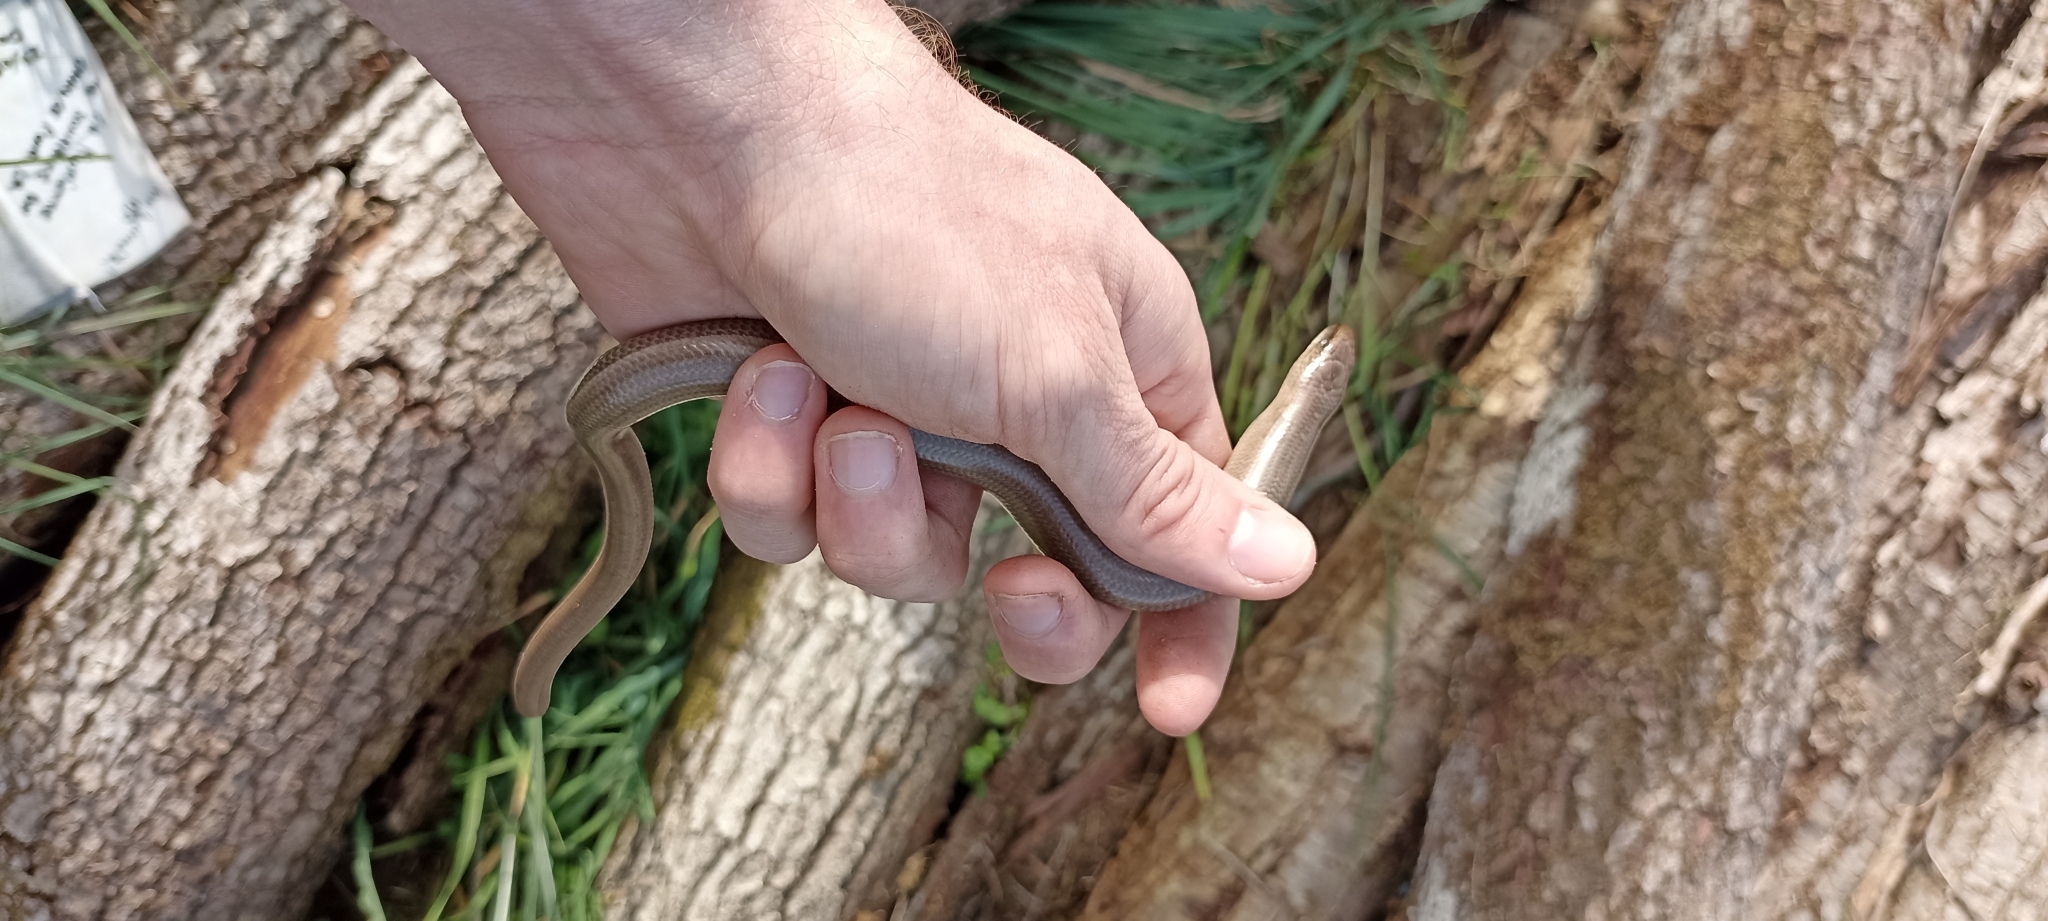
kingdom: Animalia
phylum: Chordata
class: Squamata
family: Anguidae
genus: Anguis
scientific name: Anguis fragilis
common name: Slow worm
